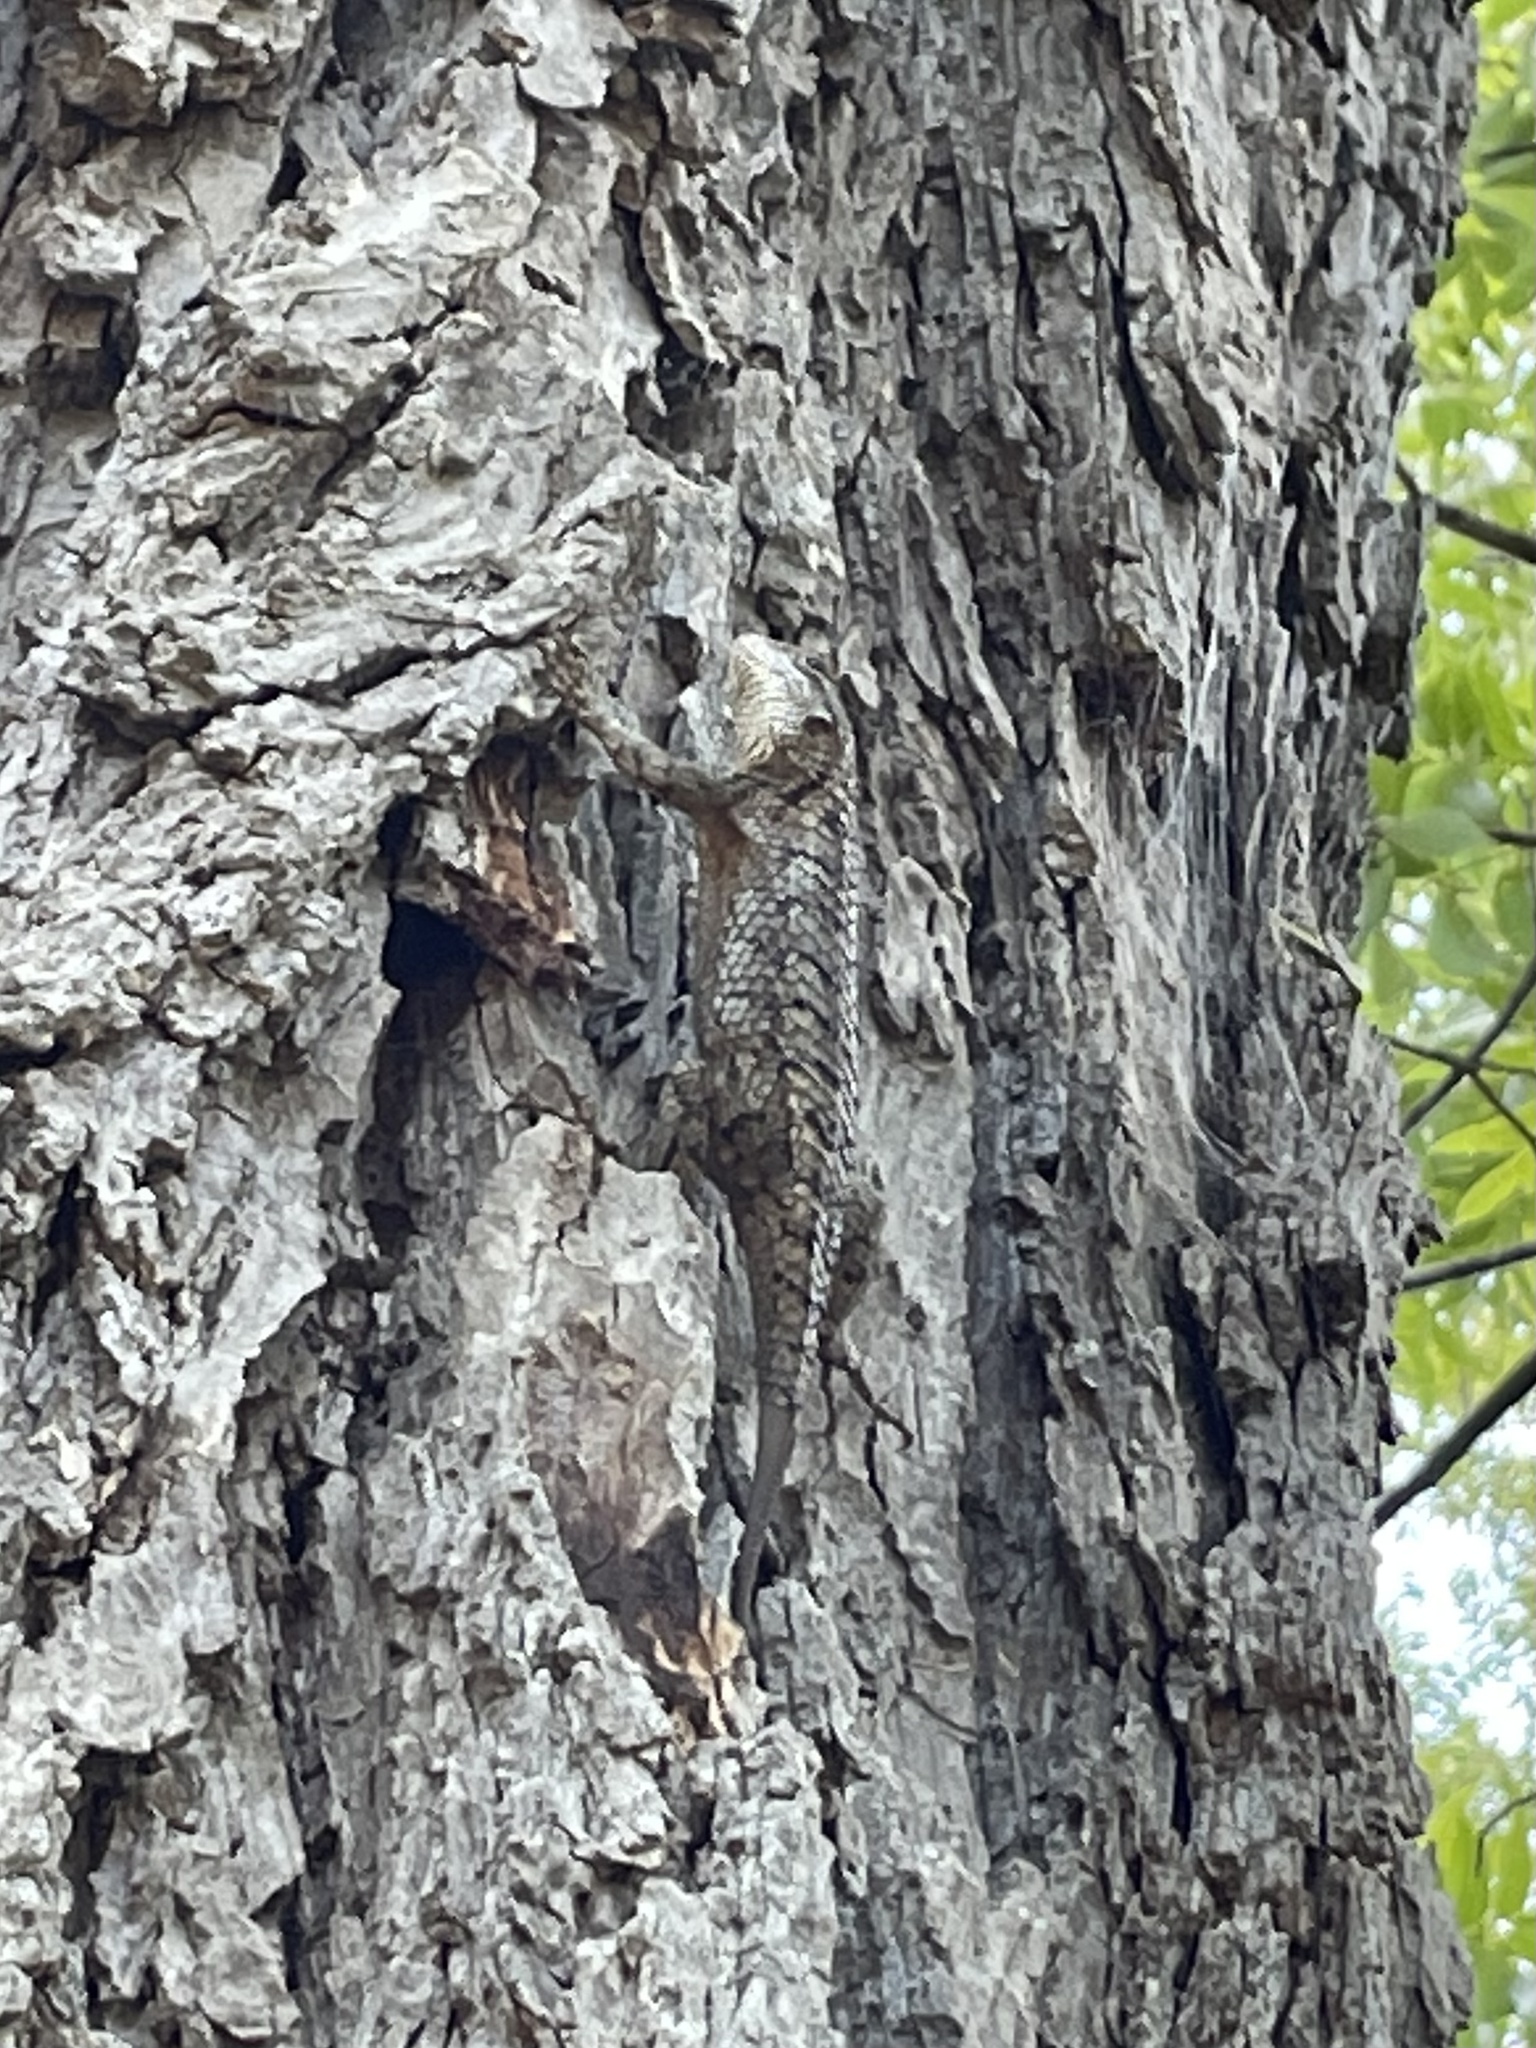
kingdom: Animalia
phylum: Chordata
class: Squamata
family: Phrynosomatidae
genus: Sceloporus
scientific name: Sceloporus olivaceus
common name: Texas spiny lizard
